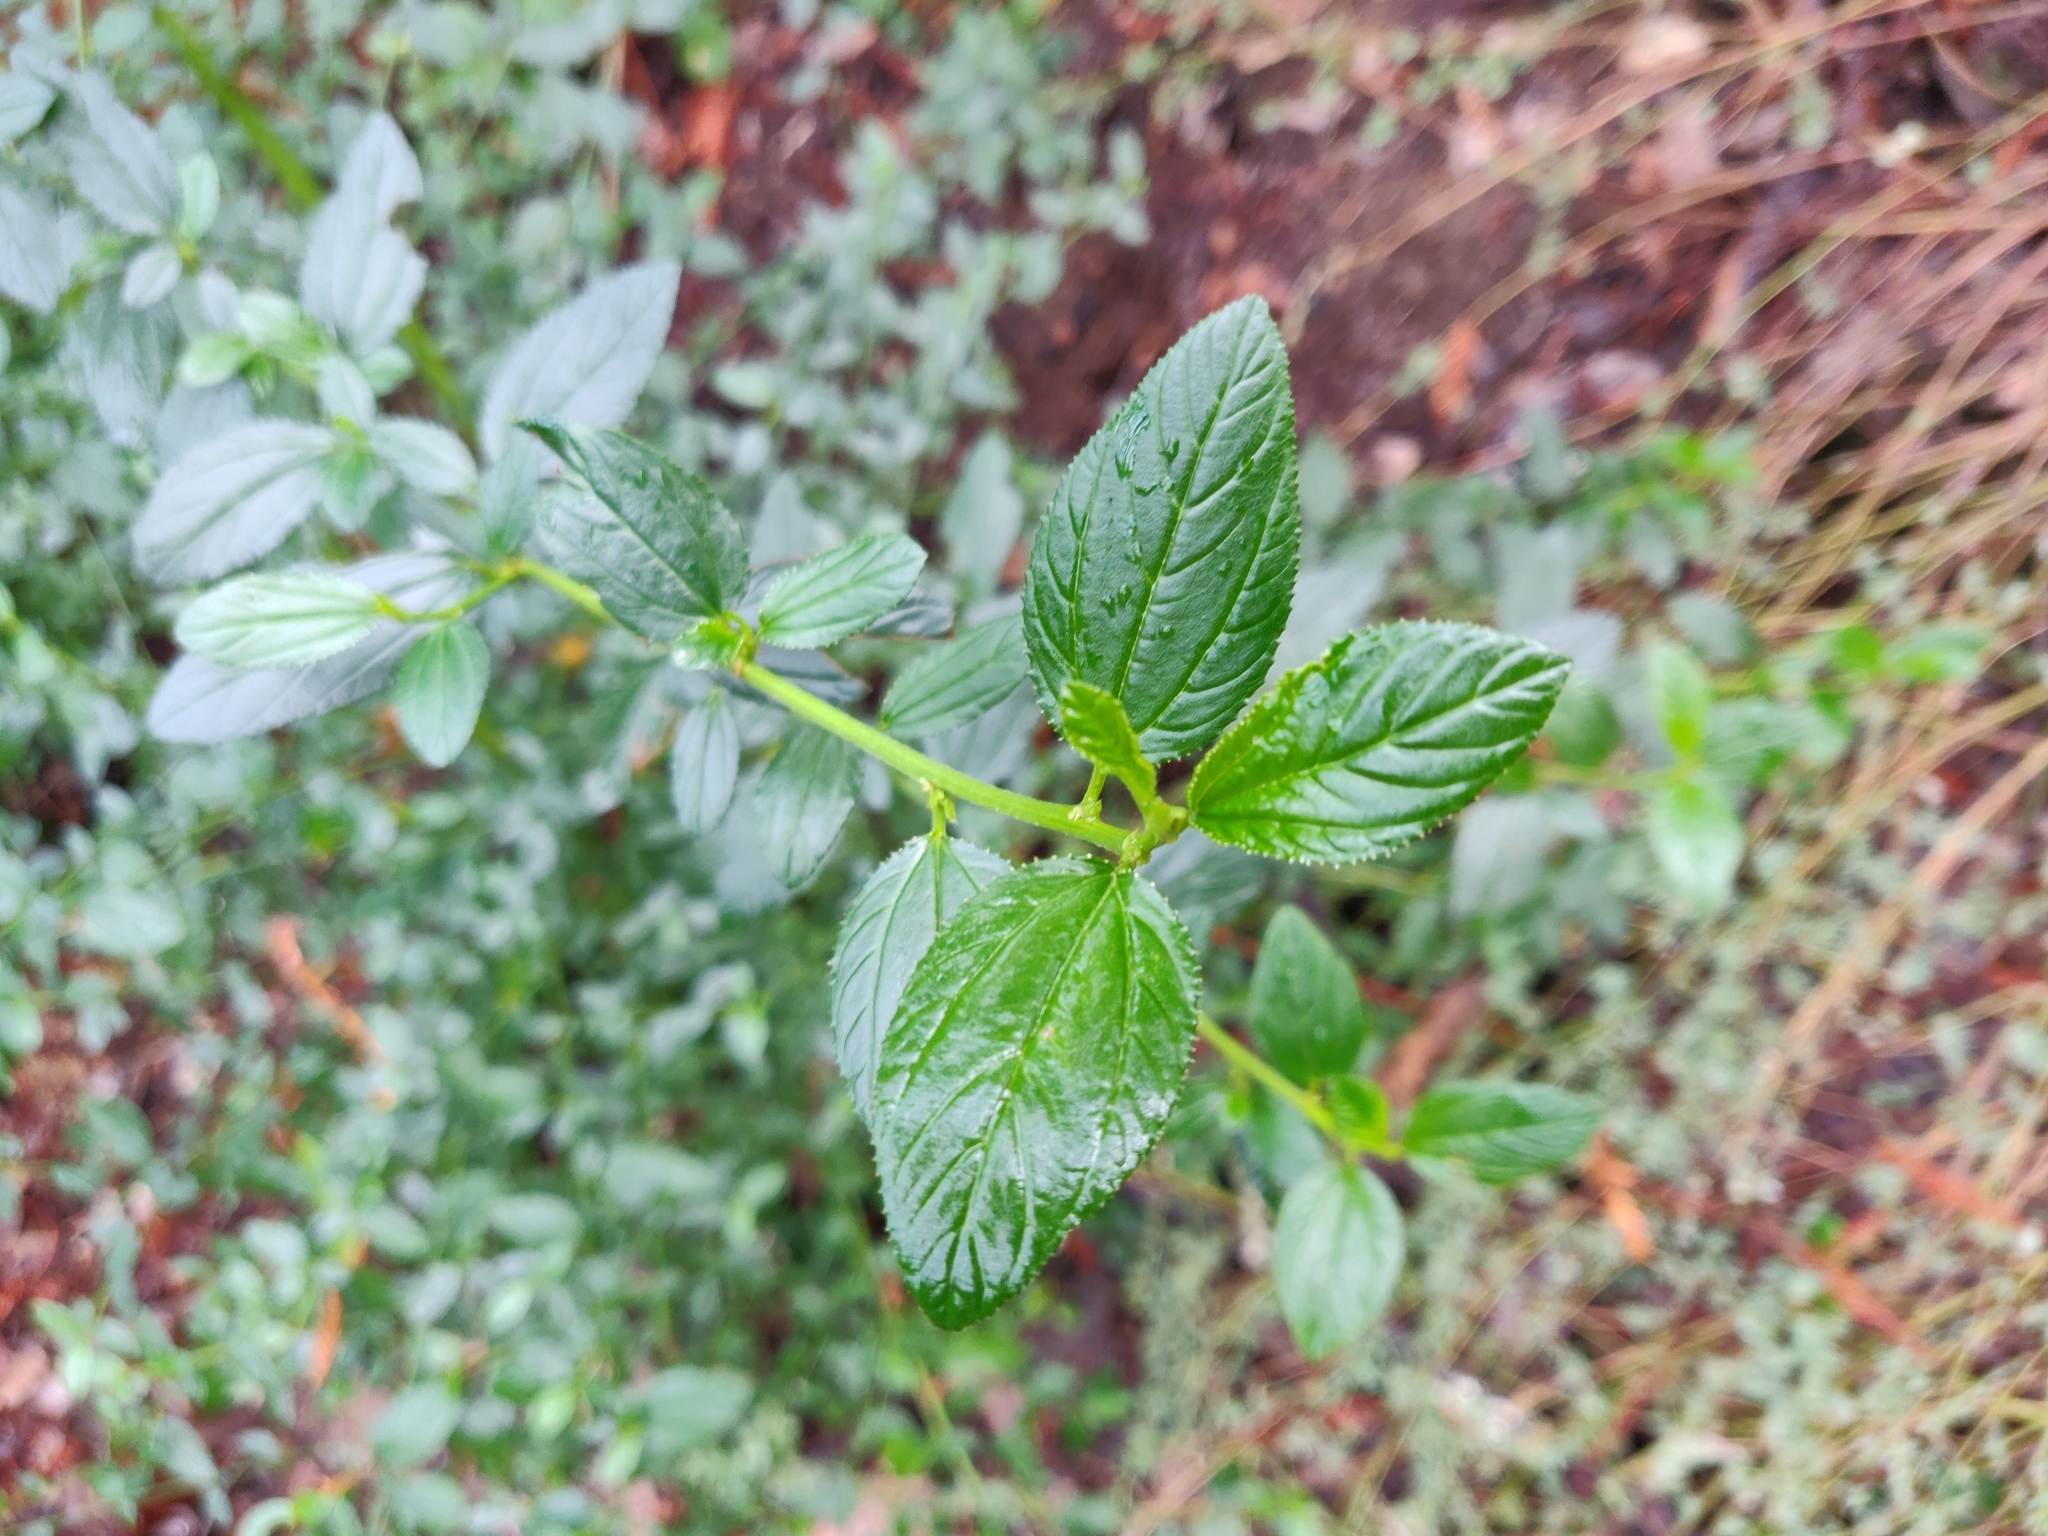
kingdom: Plantae
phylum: Tracheophyta
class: Magnoliopsida
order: Rosales
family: Rhamnaceae
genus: Ceanothus
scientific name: Ceanothus thyrsiflorus
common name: California-lilac
